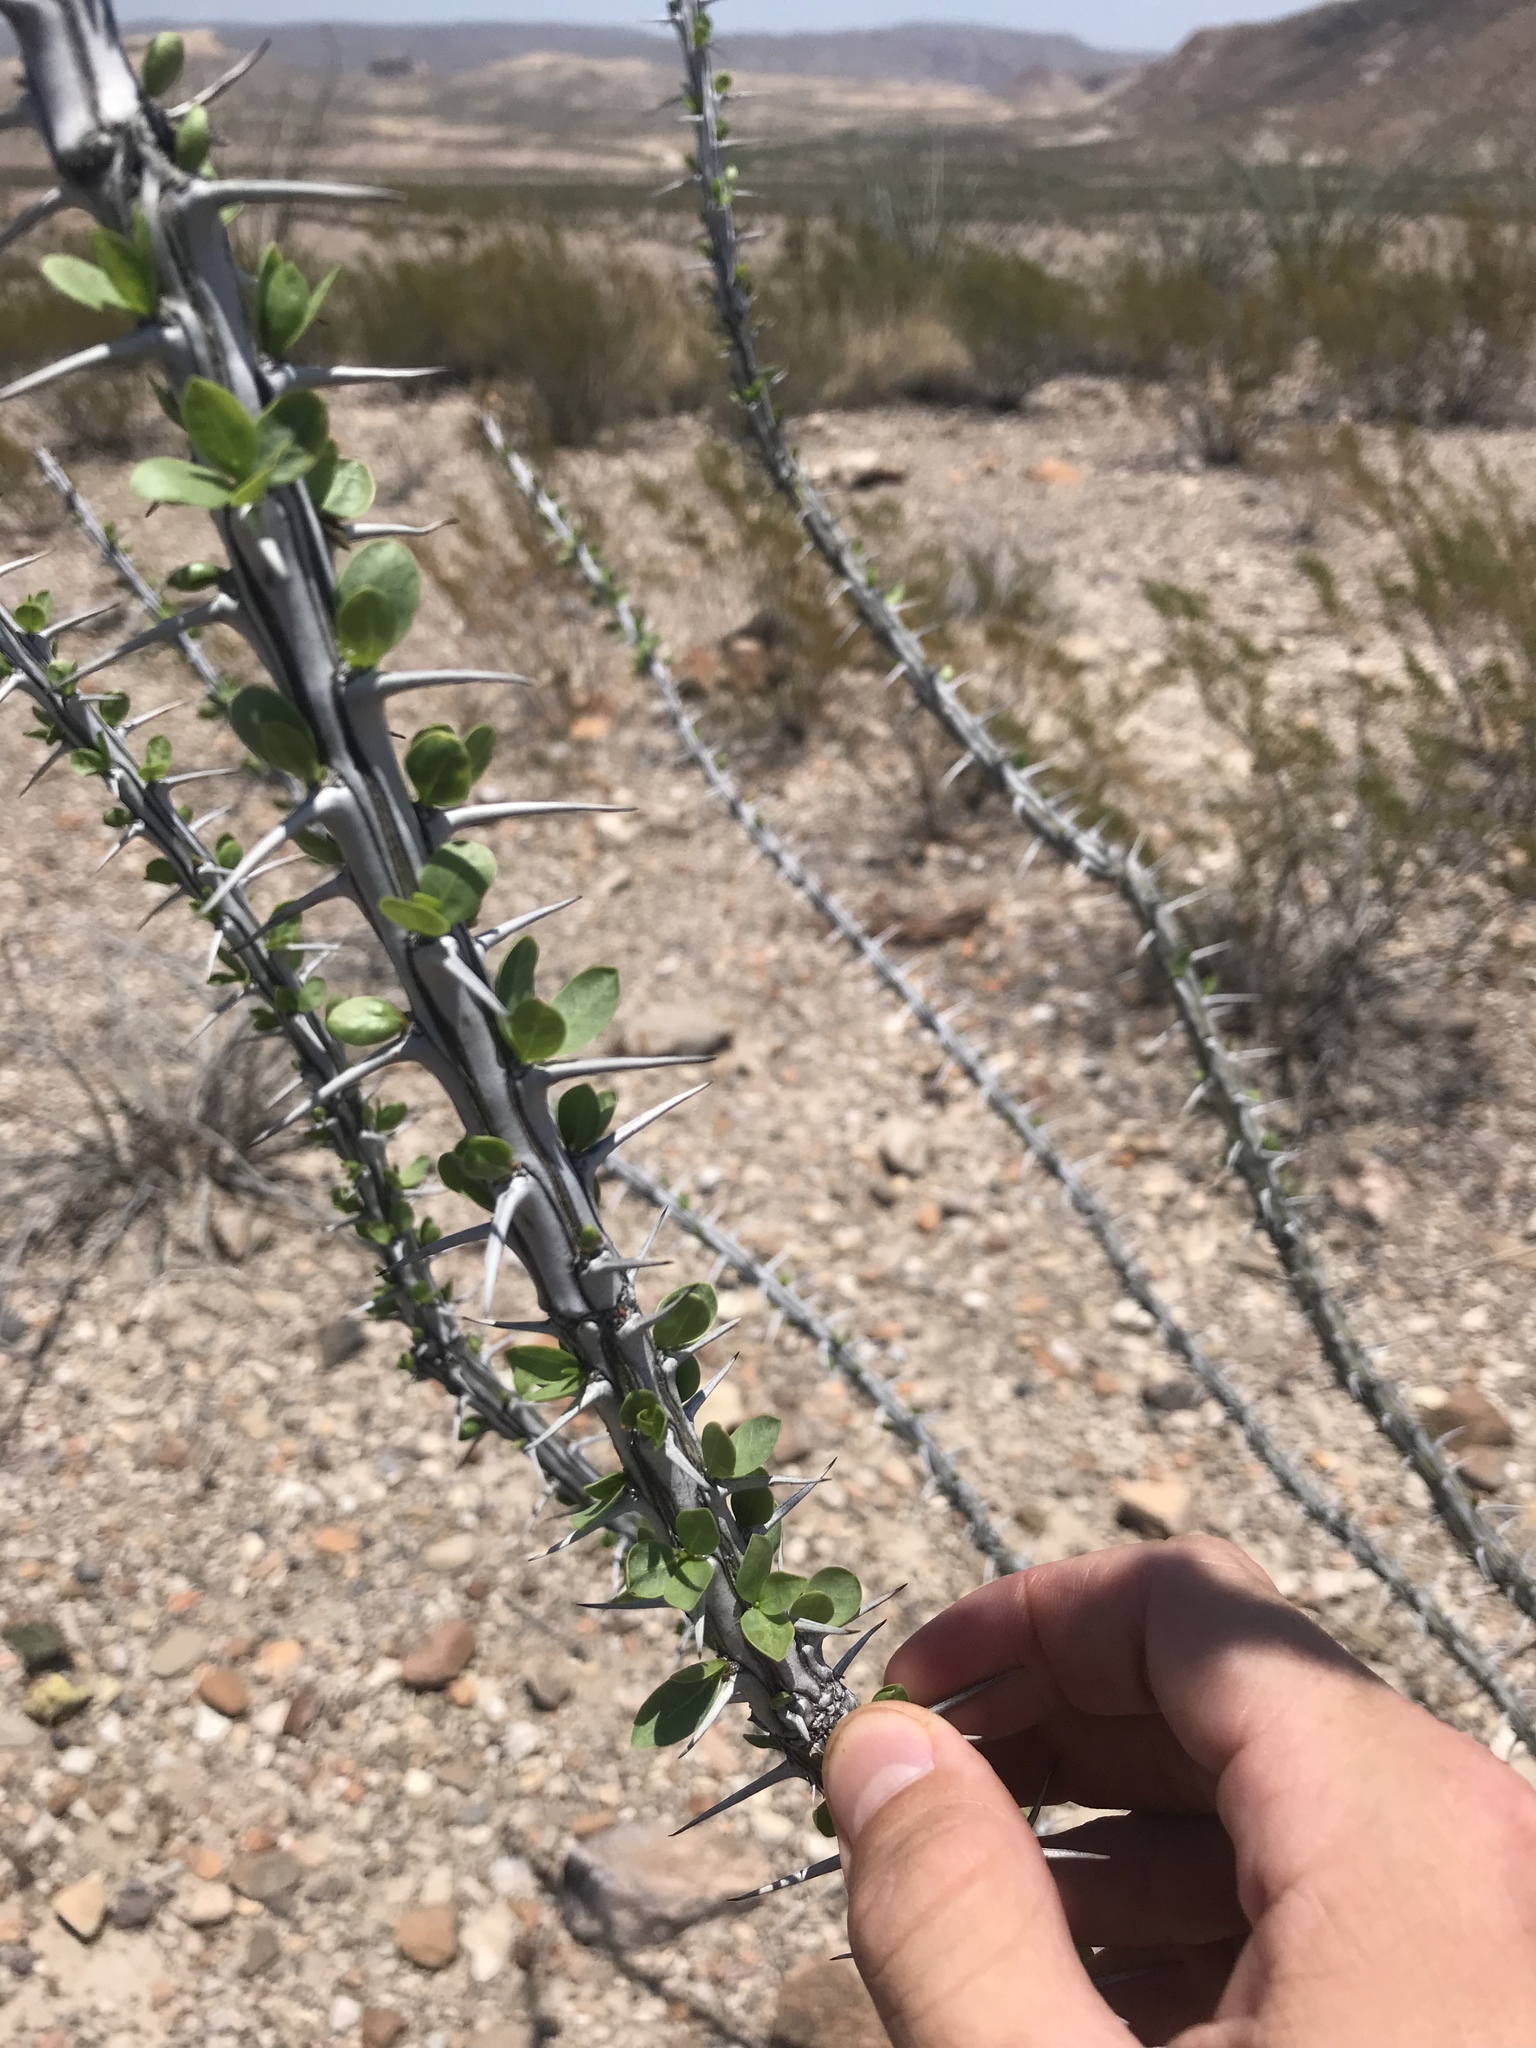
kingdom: Plantae
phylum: Tracheophyta
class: Magnoliopsida
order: Ericales
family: Fouquieriaceae
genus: Fouquieria
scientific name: Fouquieria splendens
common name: Vine-cactus
